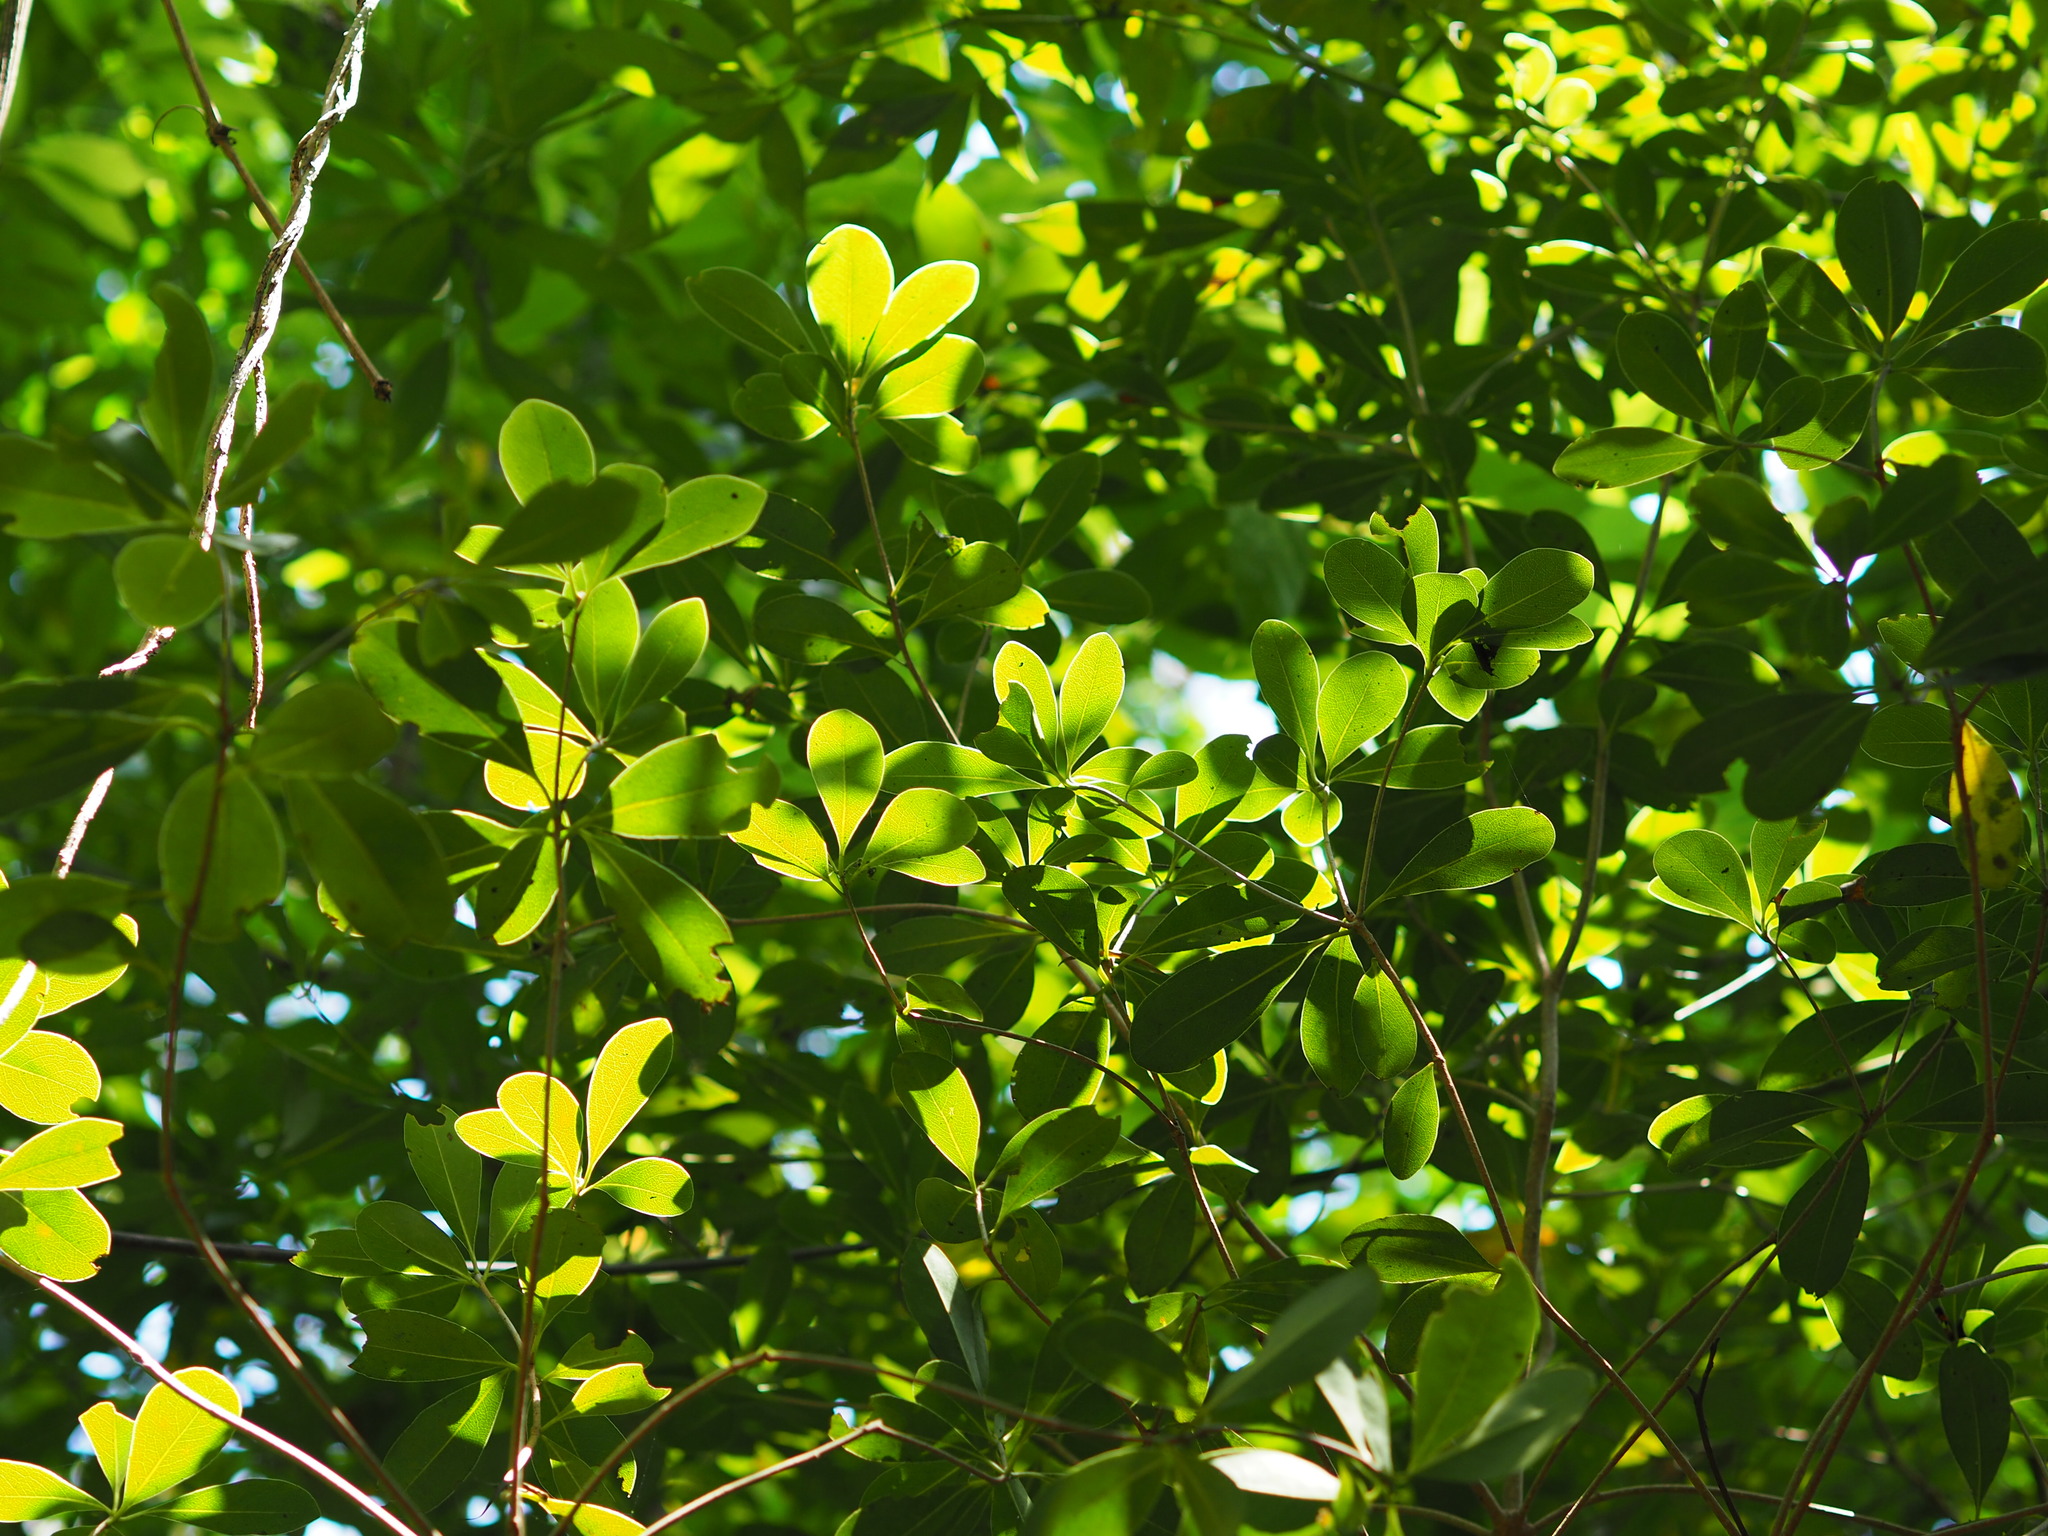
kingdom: Plantae
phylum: Tracheophyta
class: Magnoliopsida
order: Apiales
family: Pittosporaceae
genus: Pittosporum
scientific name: Pittosporum tobira
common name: Japanese cheesewood
